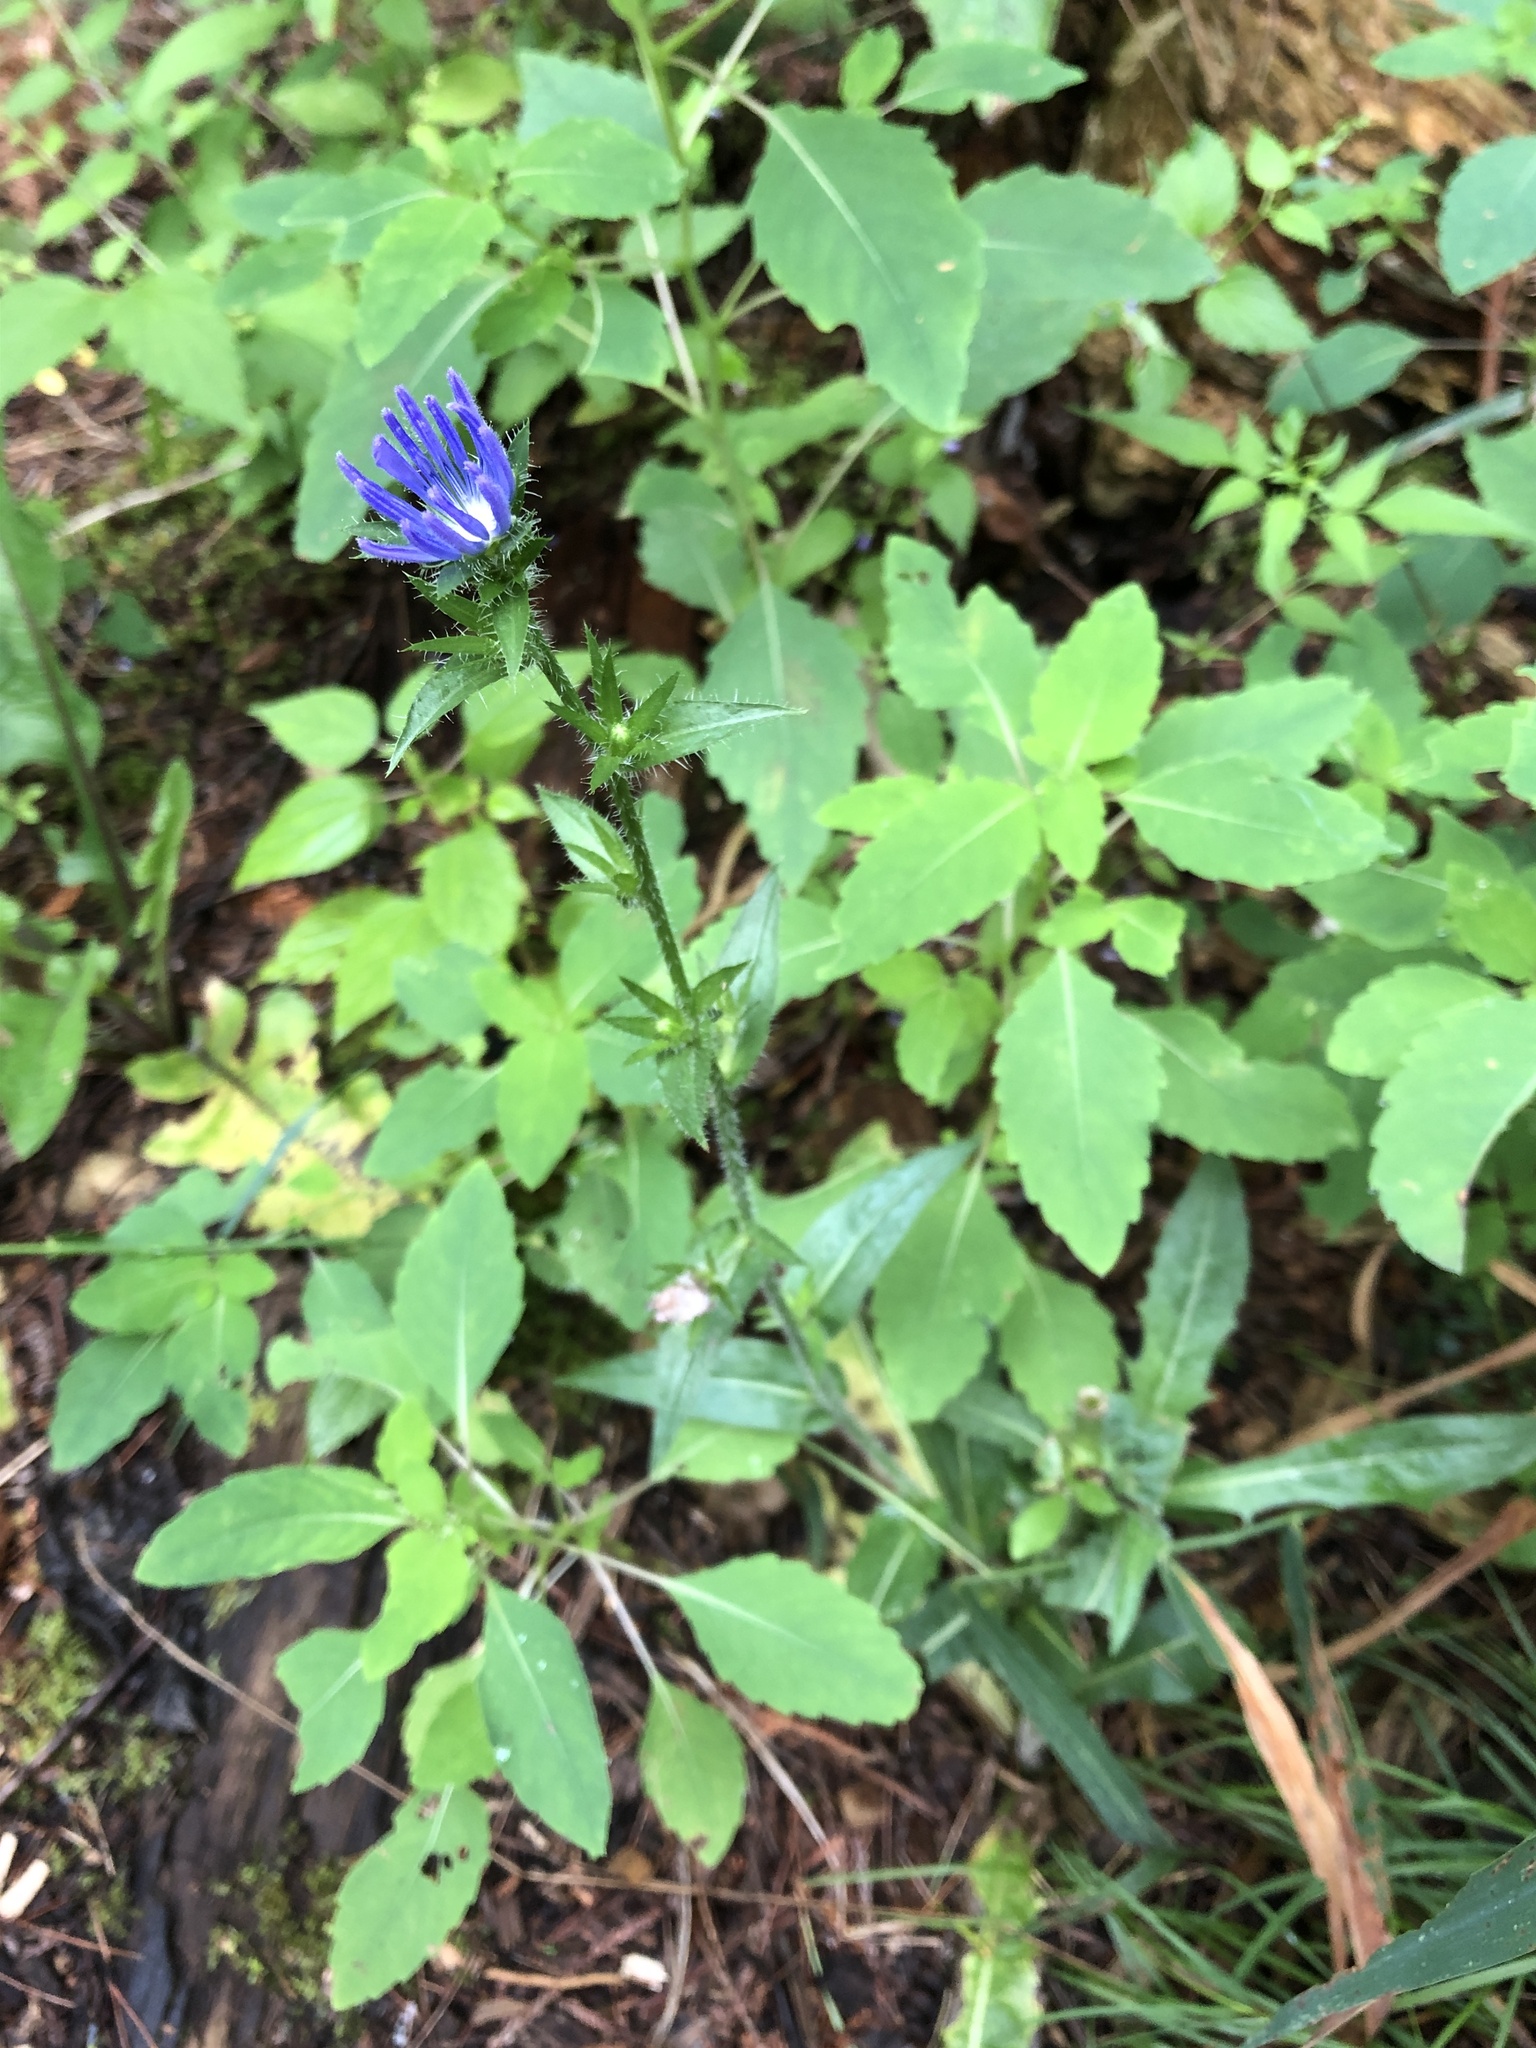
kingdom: Plantae
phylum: Tracheophyta
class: Magnoliopsida
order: Asterales
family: Asteraceae
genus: Cichorium
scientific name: Cichorium intybus
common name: Chicory
